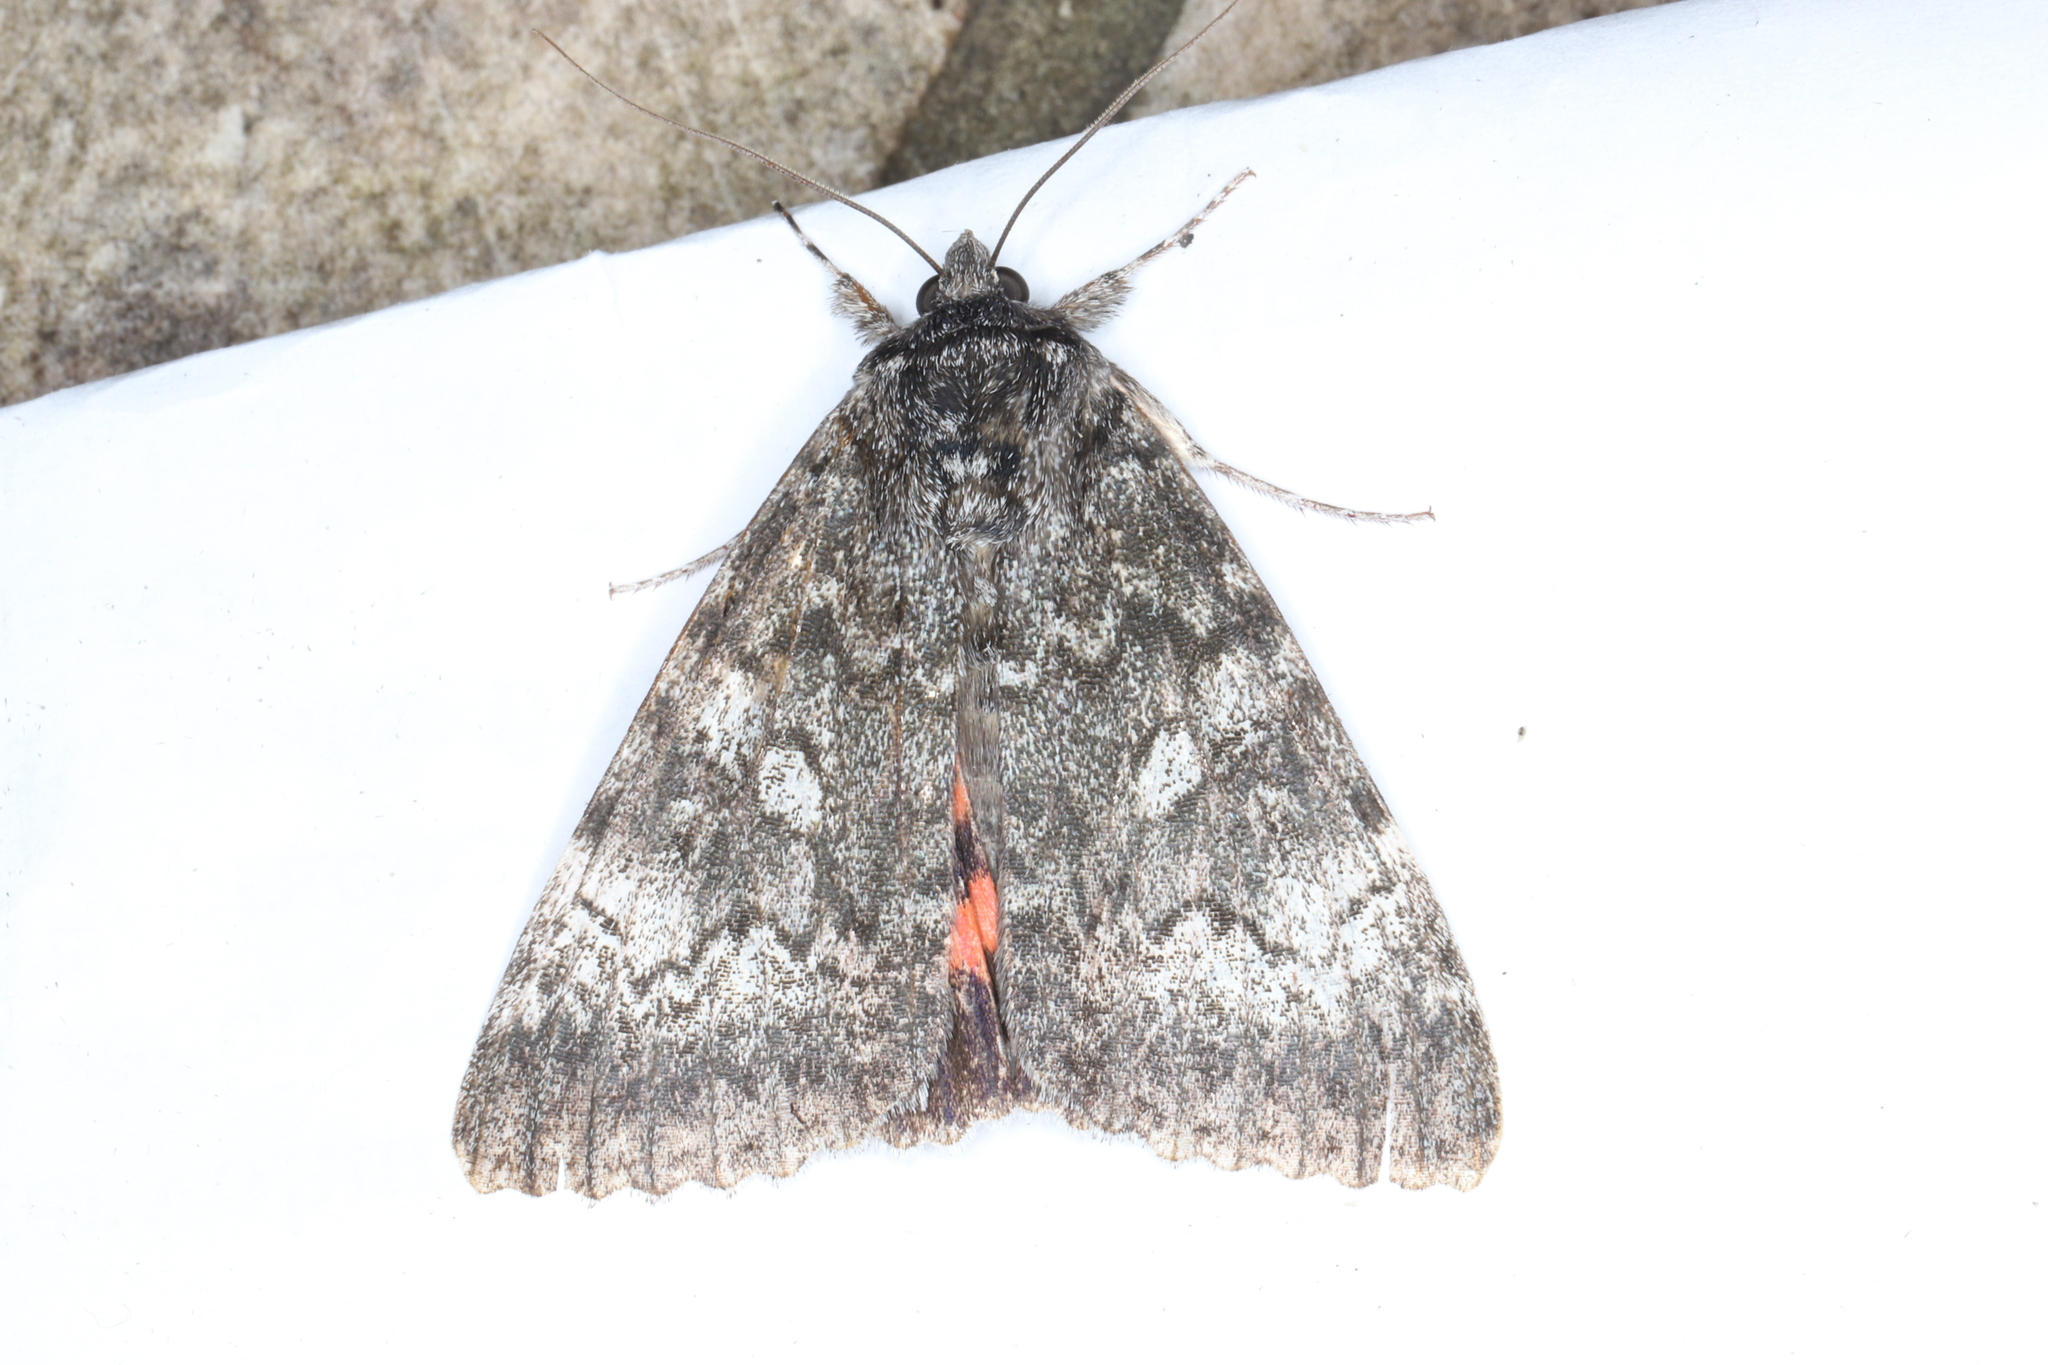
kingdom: Animalia
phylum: Arthropoda
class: Insecta
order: Lepidoptera
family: Erebidae
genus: Catocala
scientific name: Catocala briseis
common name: Briseis underwing
